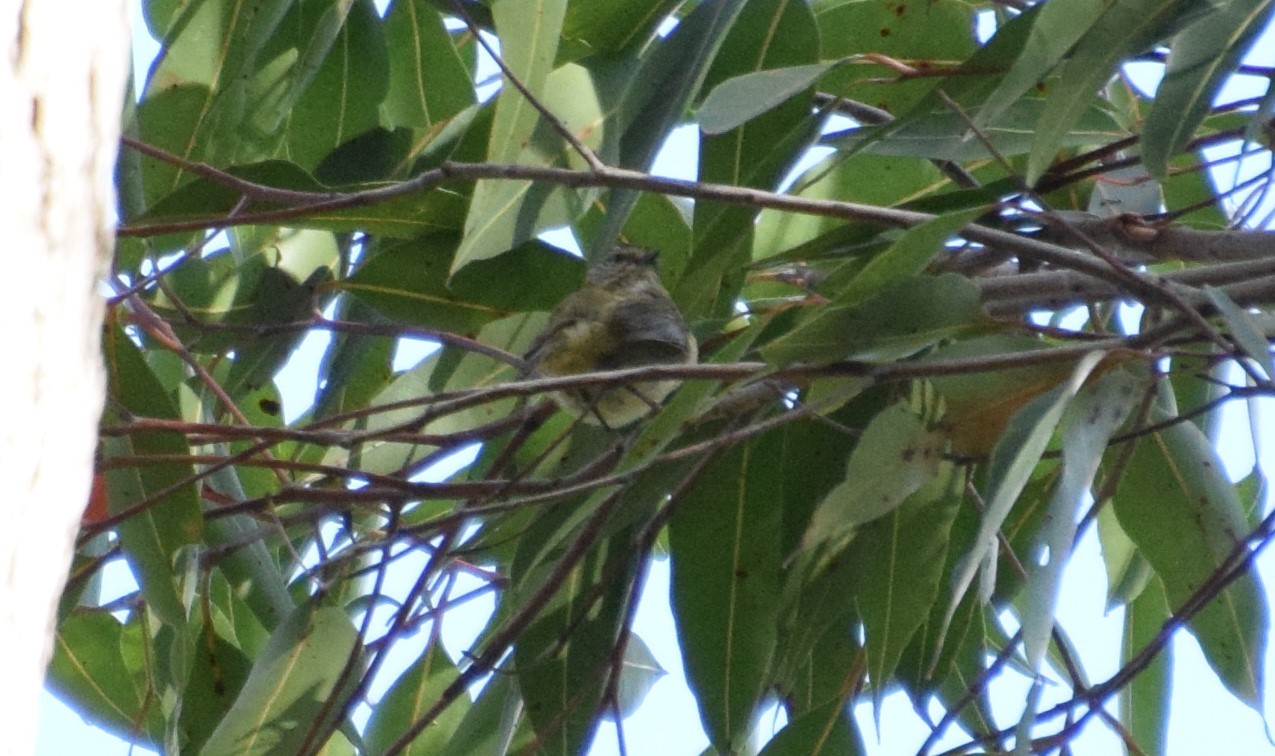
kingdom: Animalia
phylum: Chordata
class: Aves
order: Passeriformes
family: Acanthizidae
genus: Acanthiza
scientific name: Acanthiza lineata
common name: Striated thornbill
